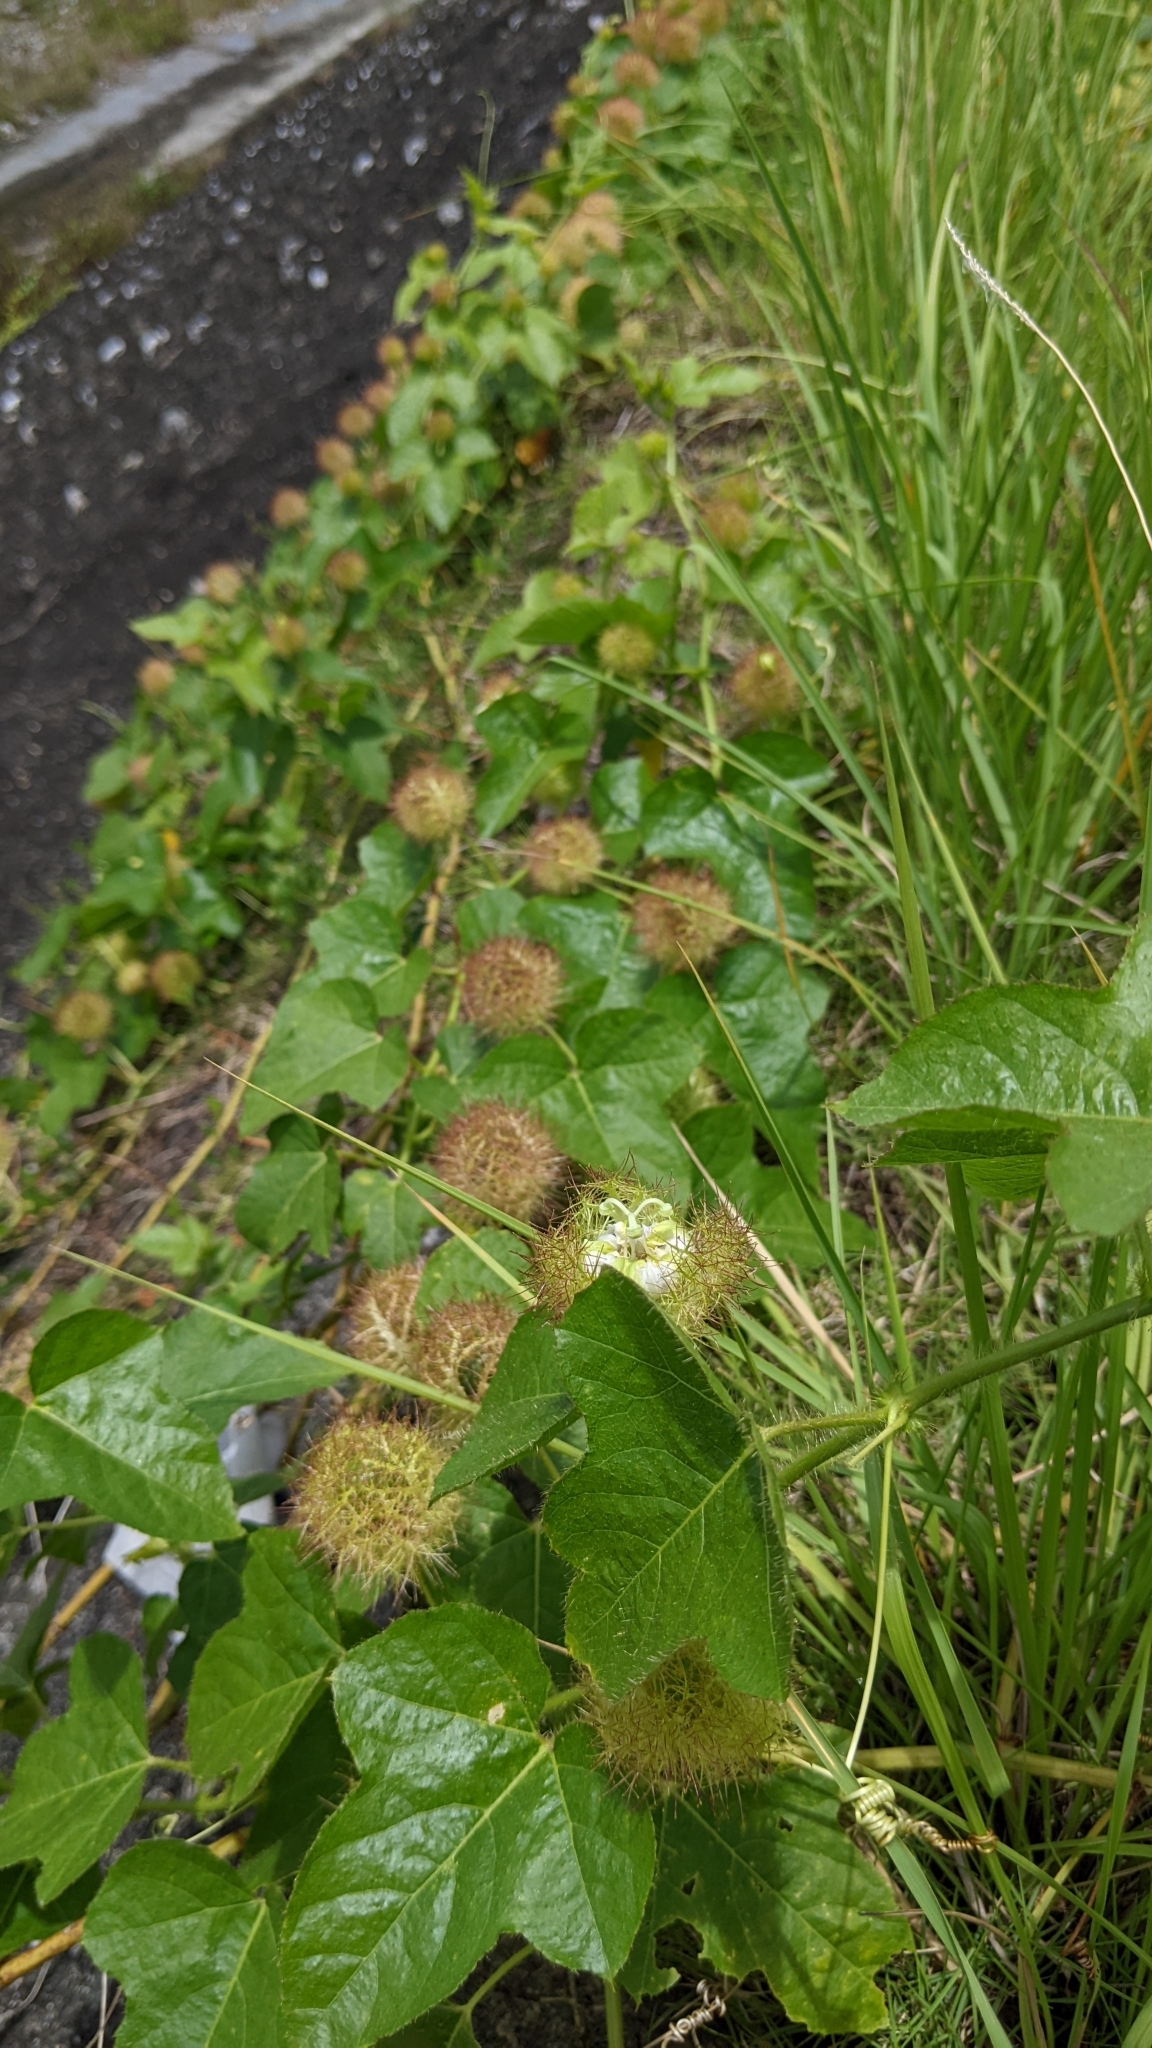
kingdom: Plantae
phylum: Tracheophyta
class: Magnoliopsida
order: Malpighiales
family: Passifloraceae
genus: Passiflora
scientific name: Passiflora vesicaria
